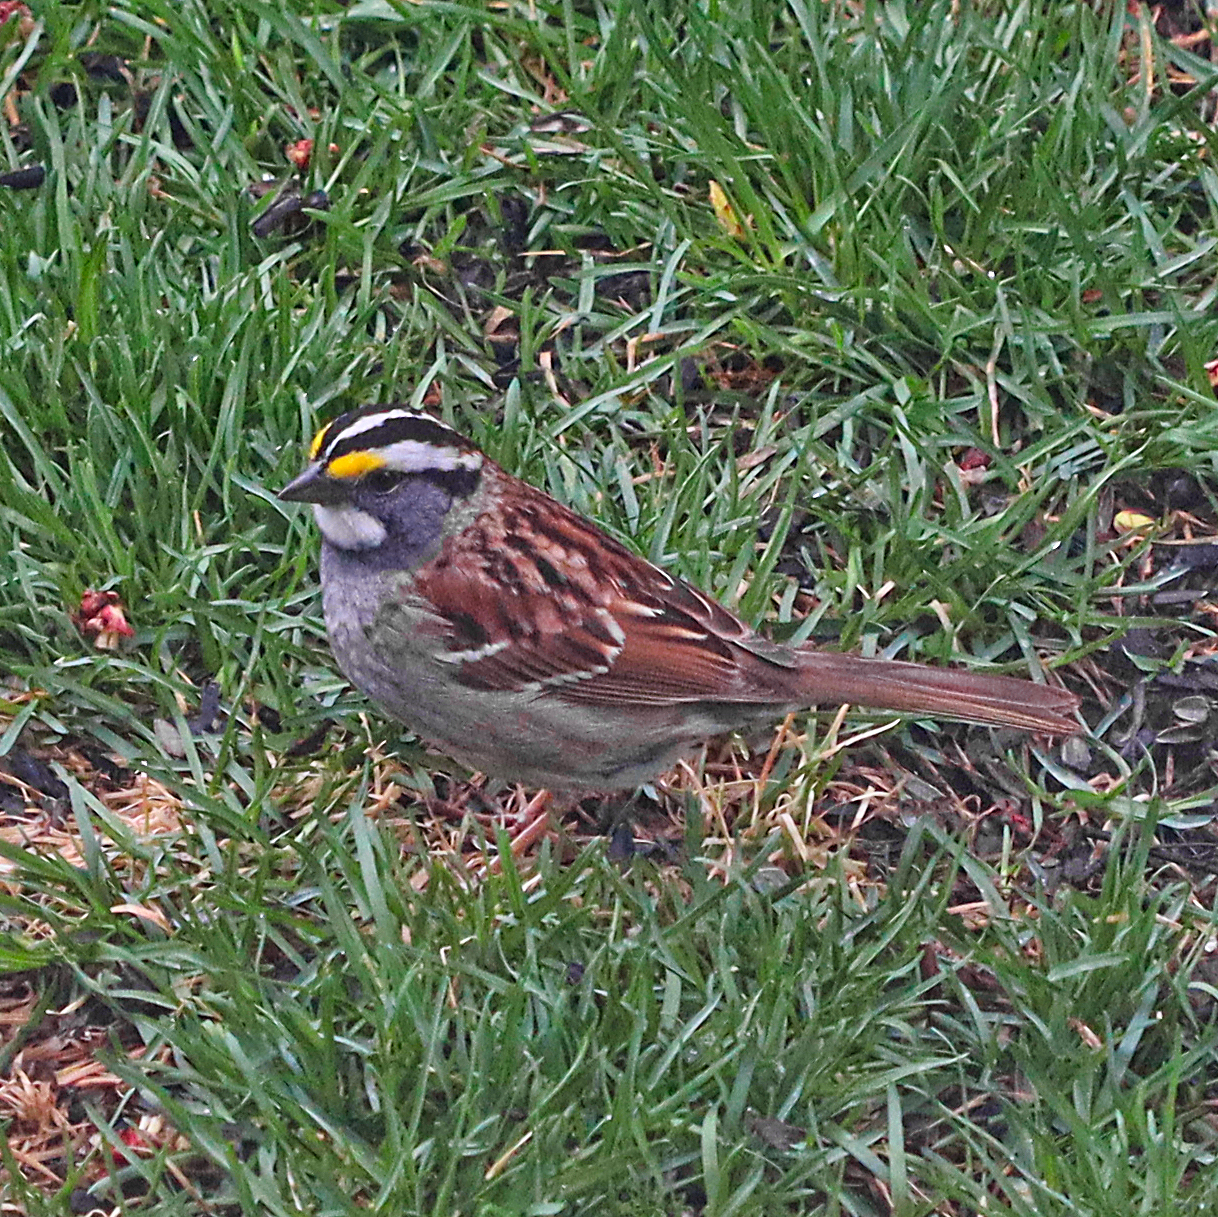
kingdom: Animalia
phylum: Chordata
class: Aves
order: Passeriformes
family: Passerellidae
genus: Zonotrichia
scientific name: Zonotrichia albicollis
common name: White-throated sparrow
